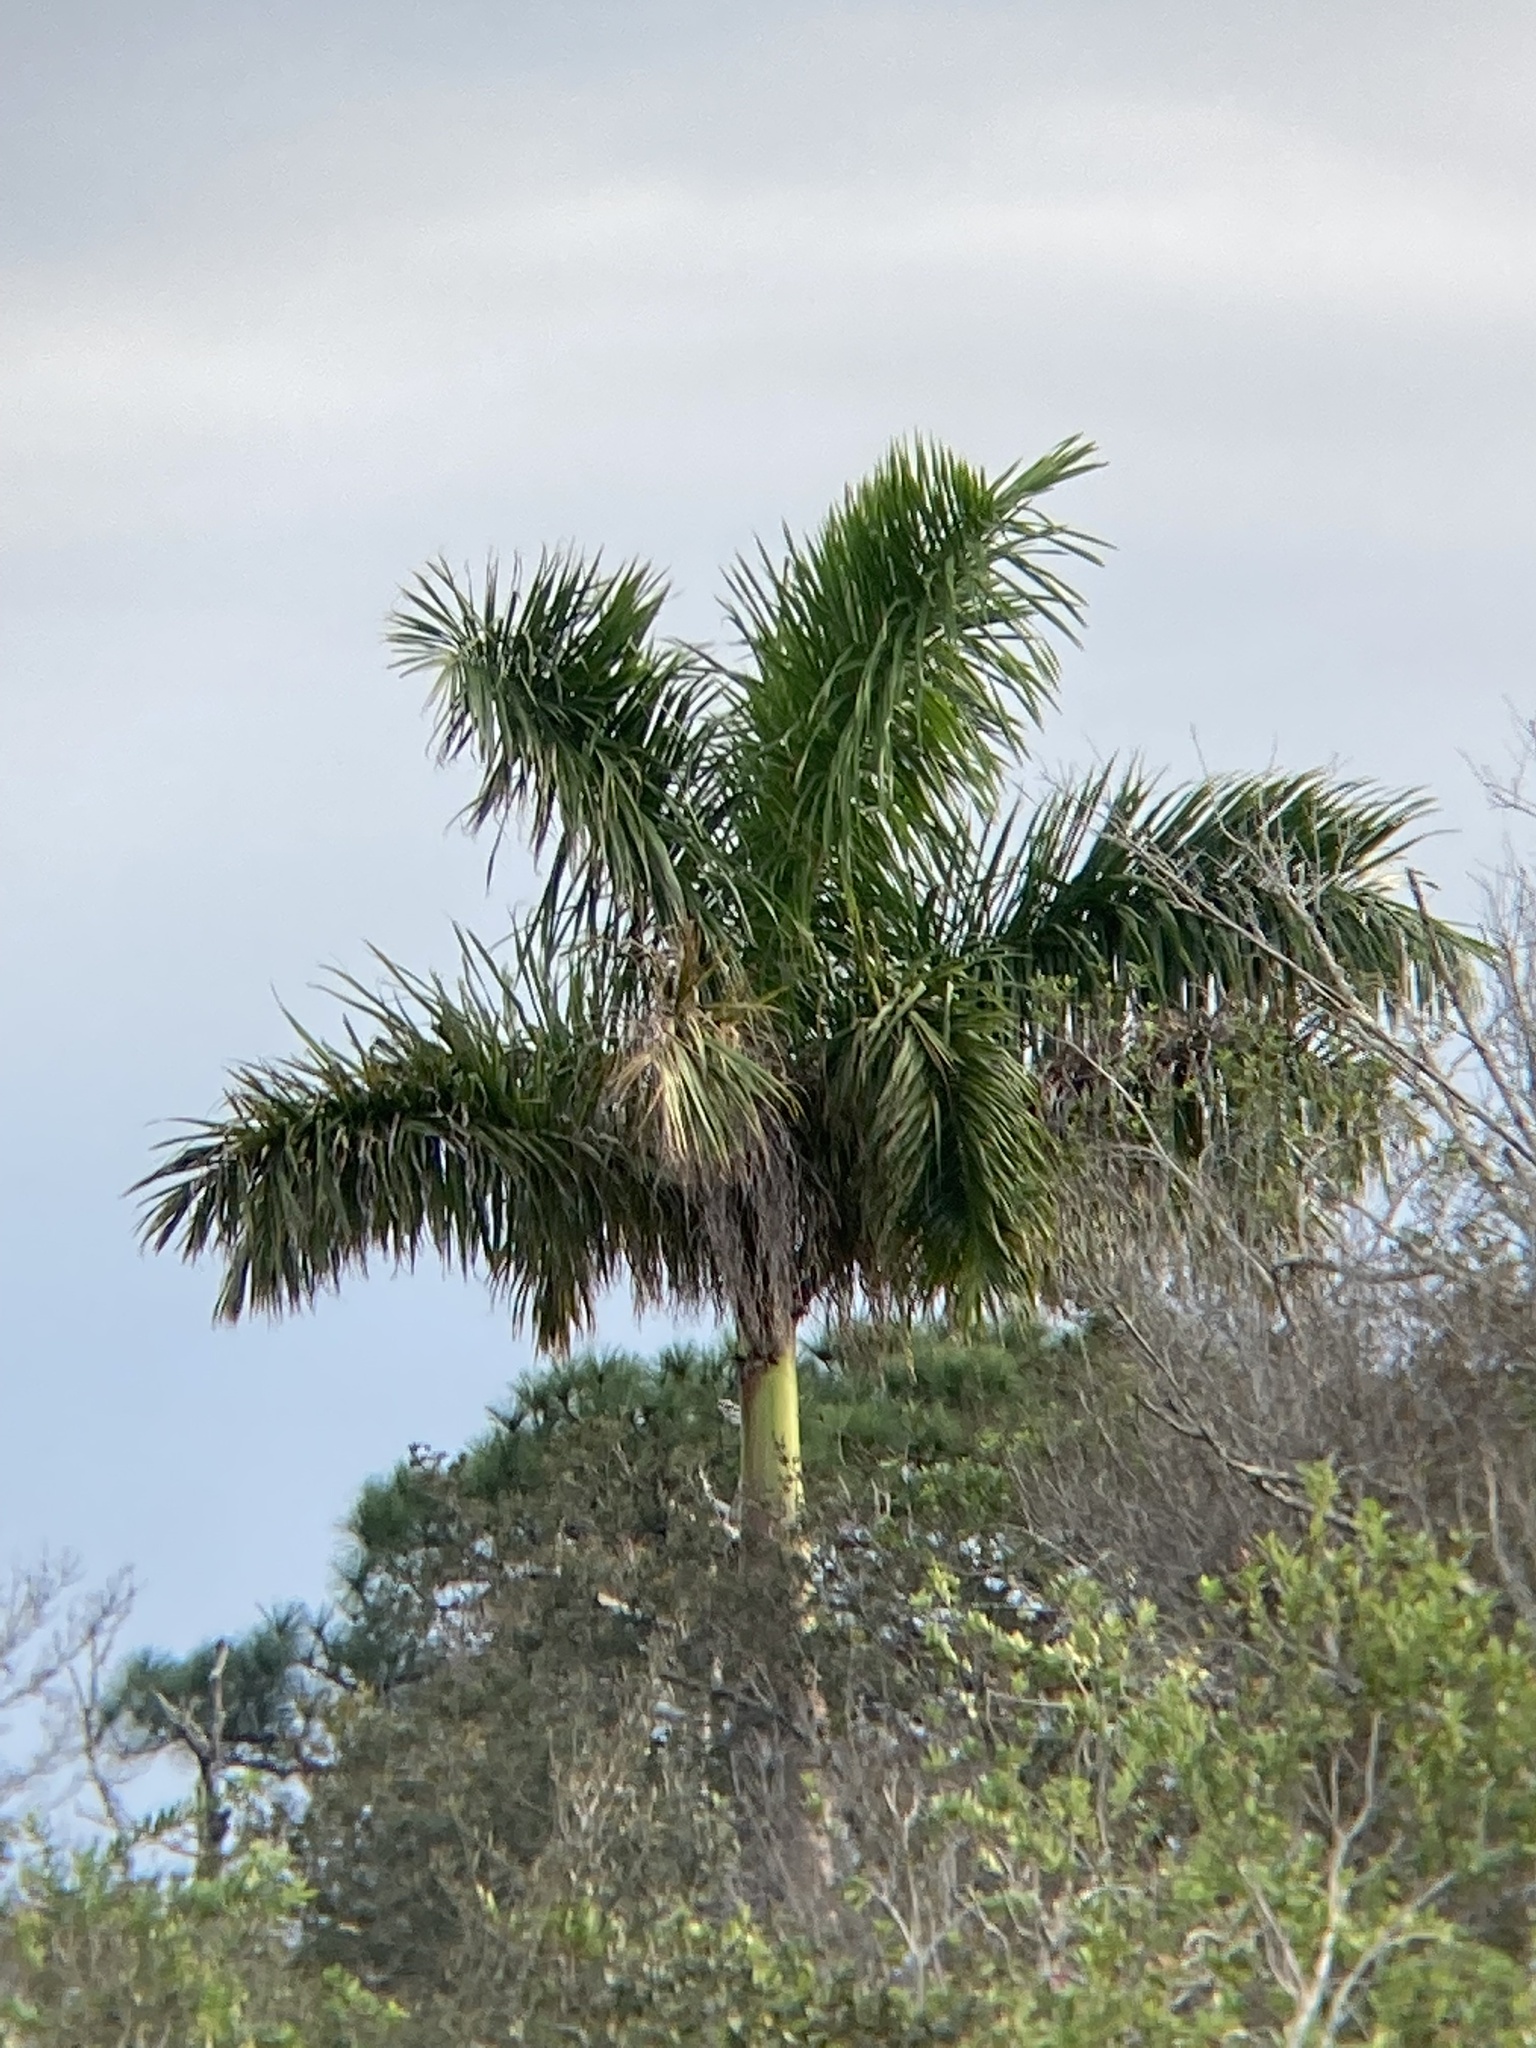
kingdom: Plantae
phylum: Tracheophyta
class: Liliopsida
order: Arecales
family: Arecaceae
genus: Roystonea
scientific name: Roystonea regia
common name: Florida royal palm
